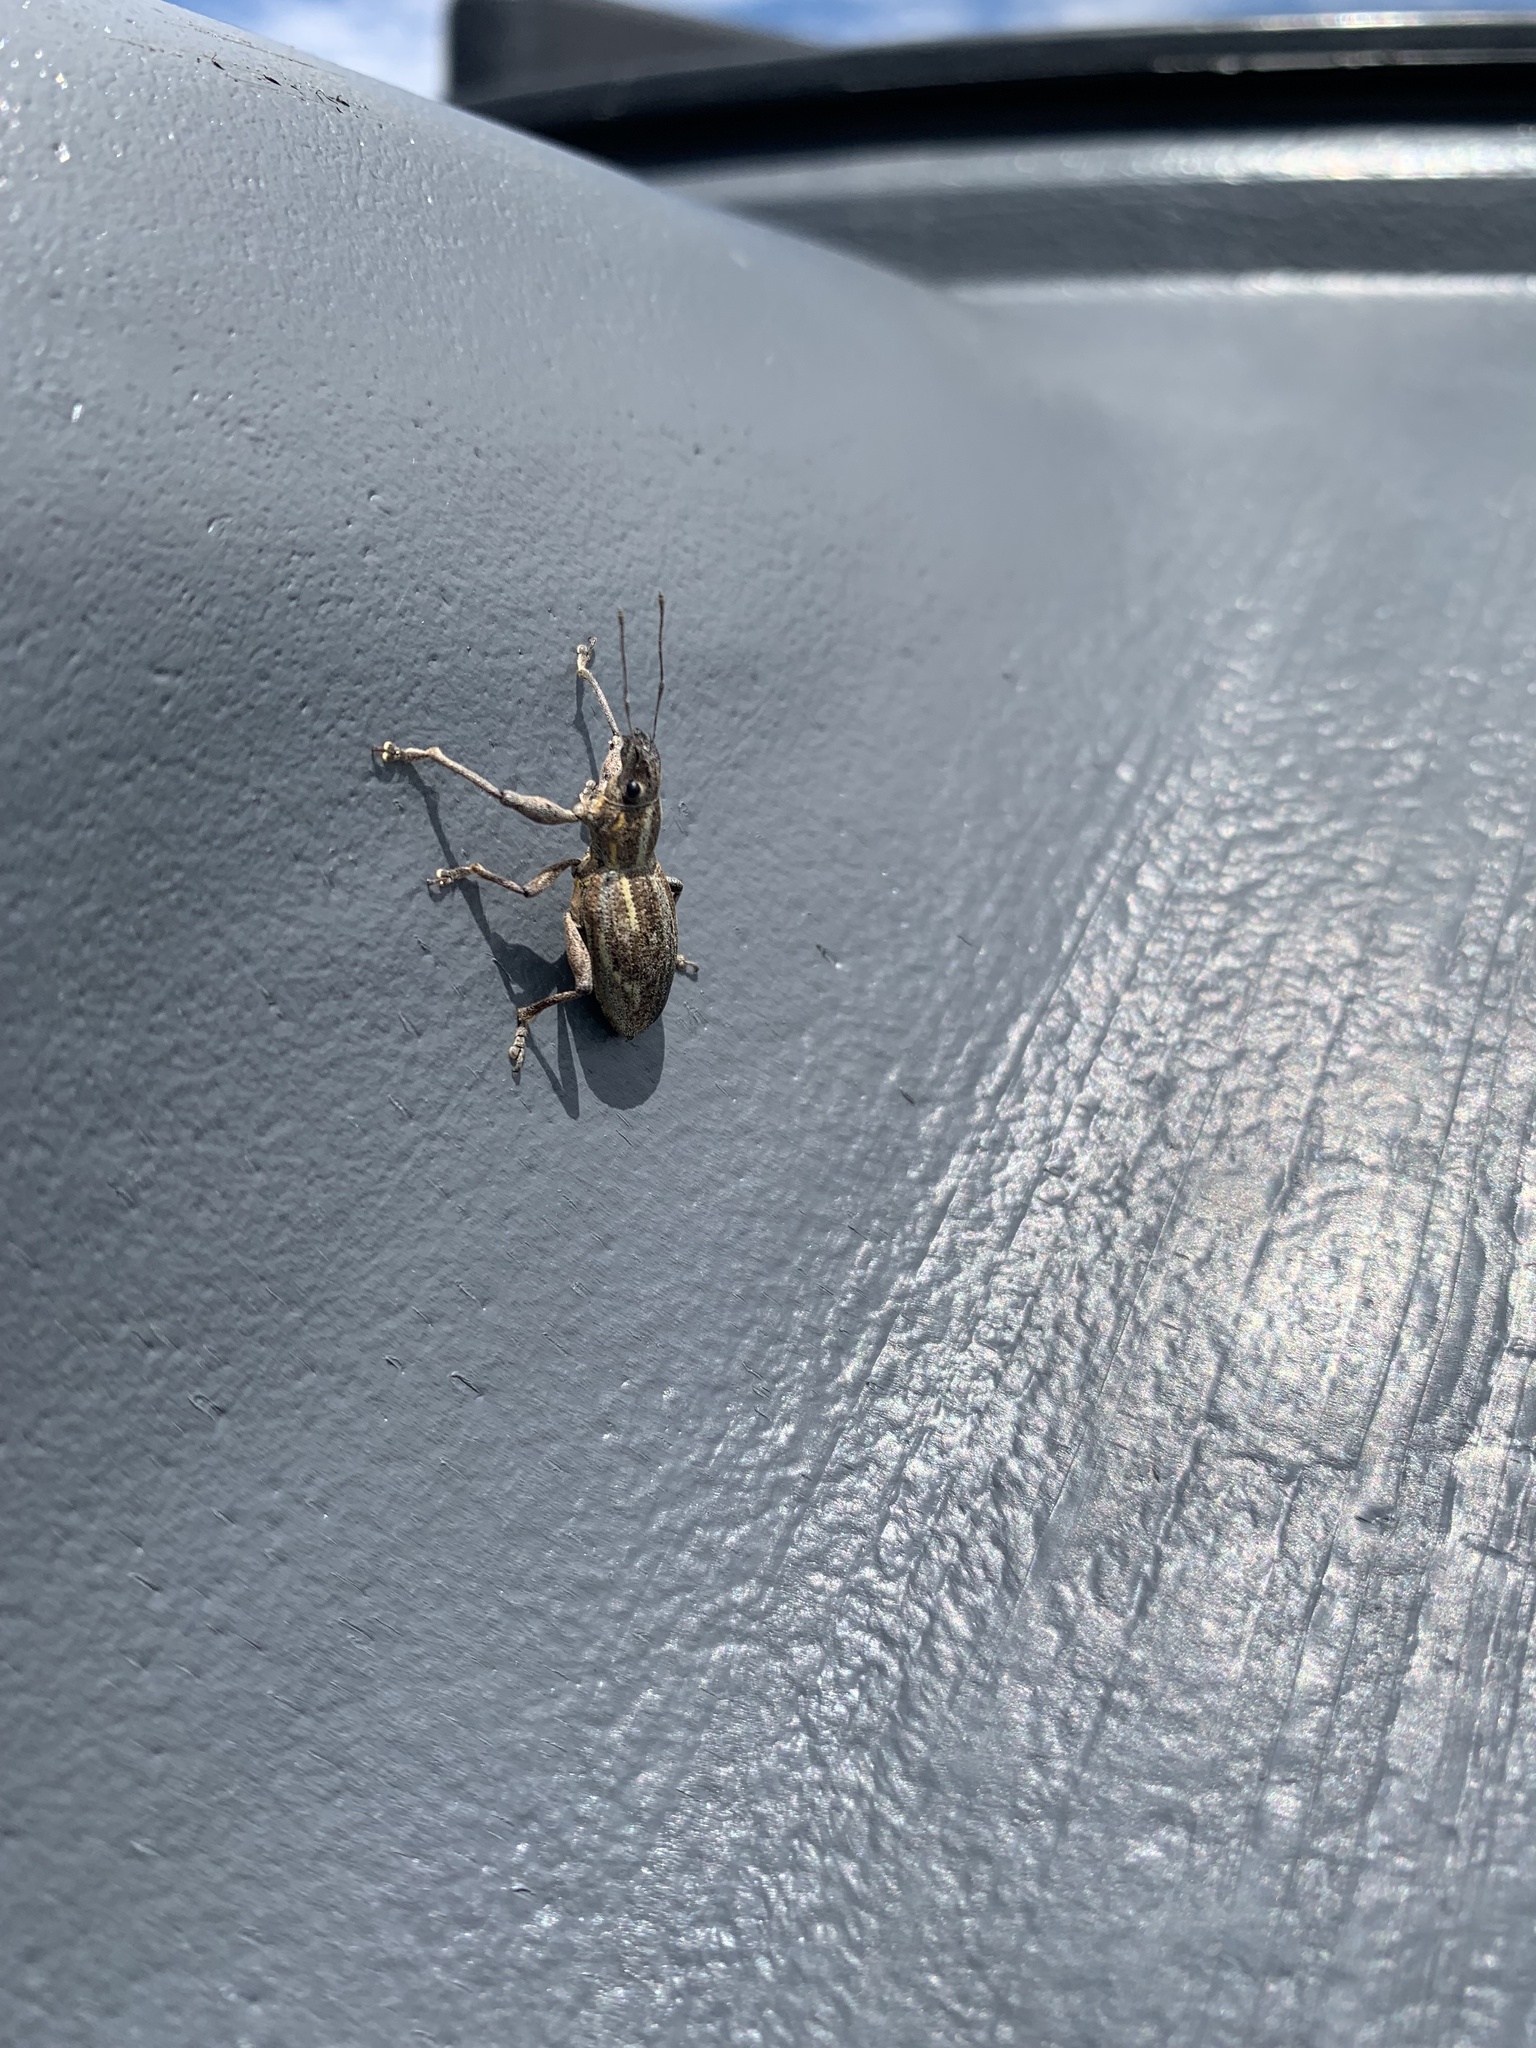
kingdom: Animalia
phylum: Arthropoda
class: Insecta
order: Coleoptera
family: Curculionidae
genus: Naupactus
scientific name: Naupactus xanthographus
